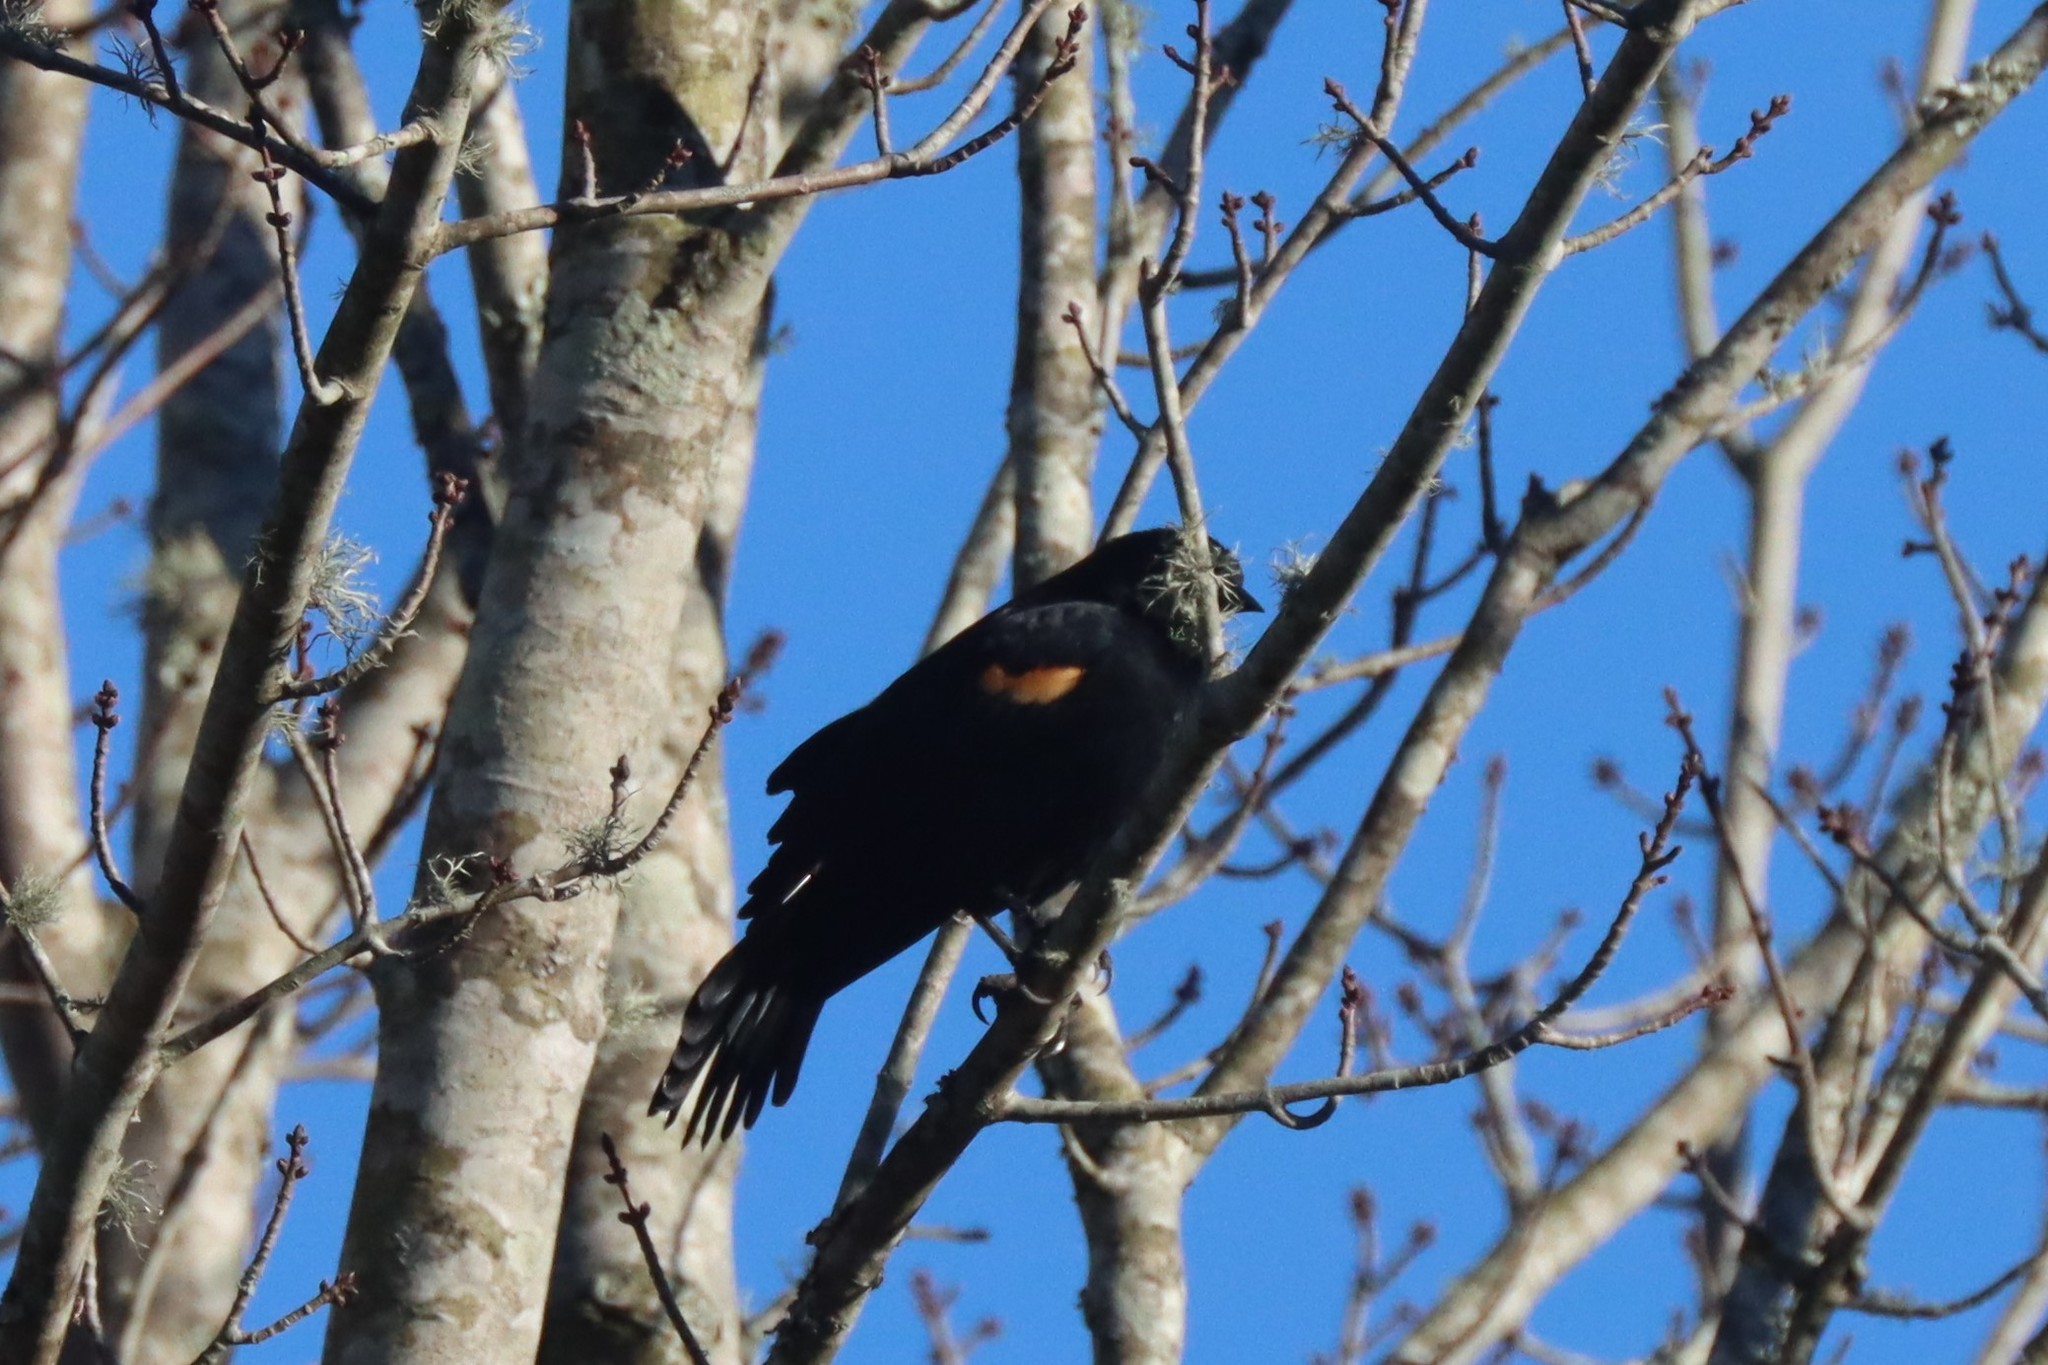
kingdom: Animalia
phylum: Chordata
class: Aves
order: Passeriformes
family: Icteridae
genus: Agelaius
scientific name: Agelaius phoeniceus
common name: Red-winged blackbird
